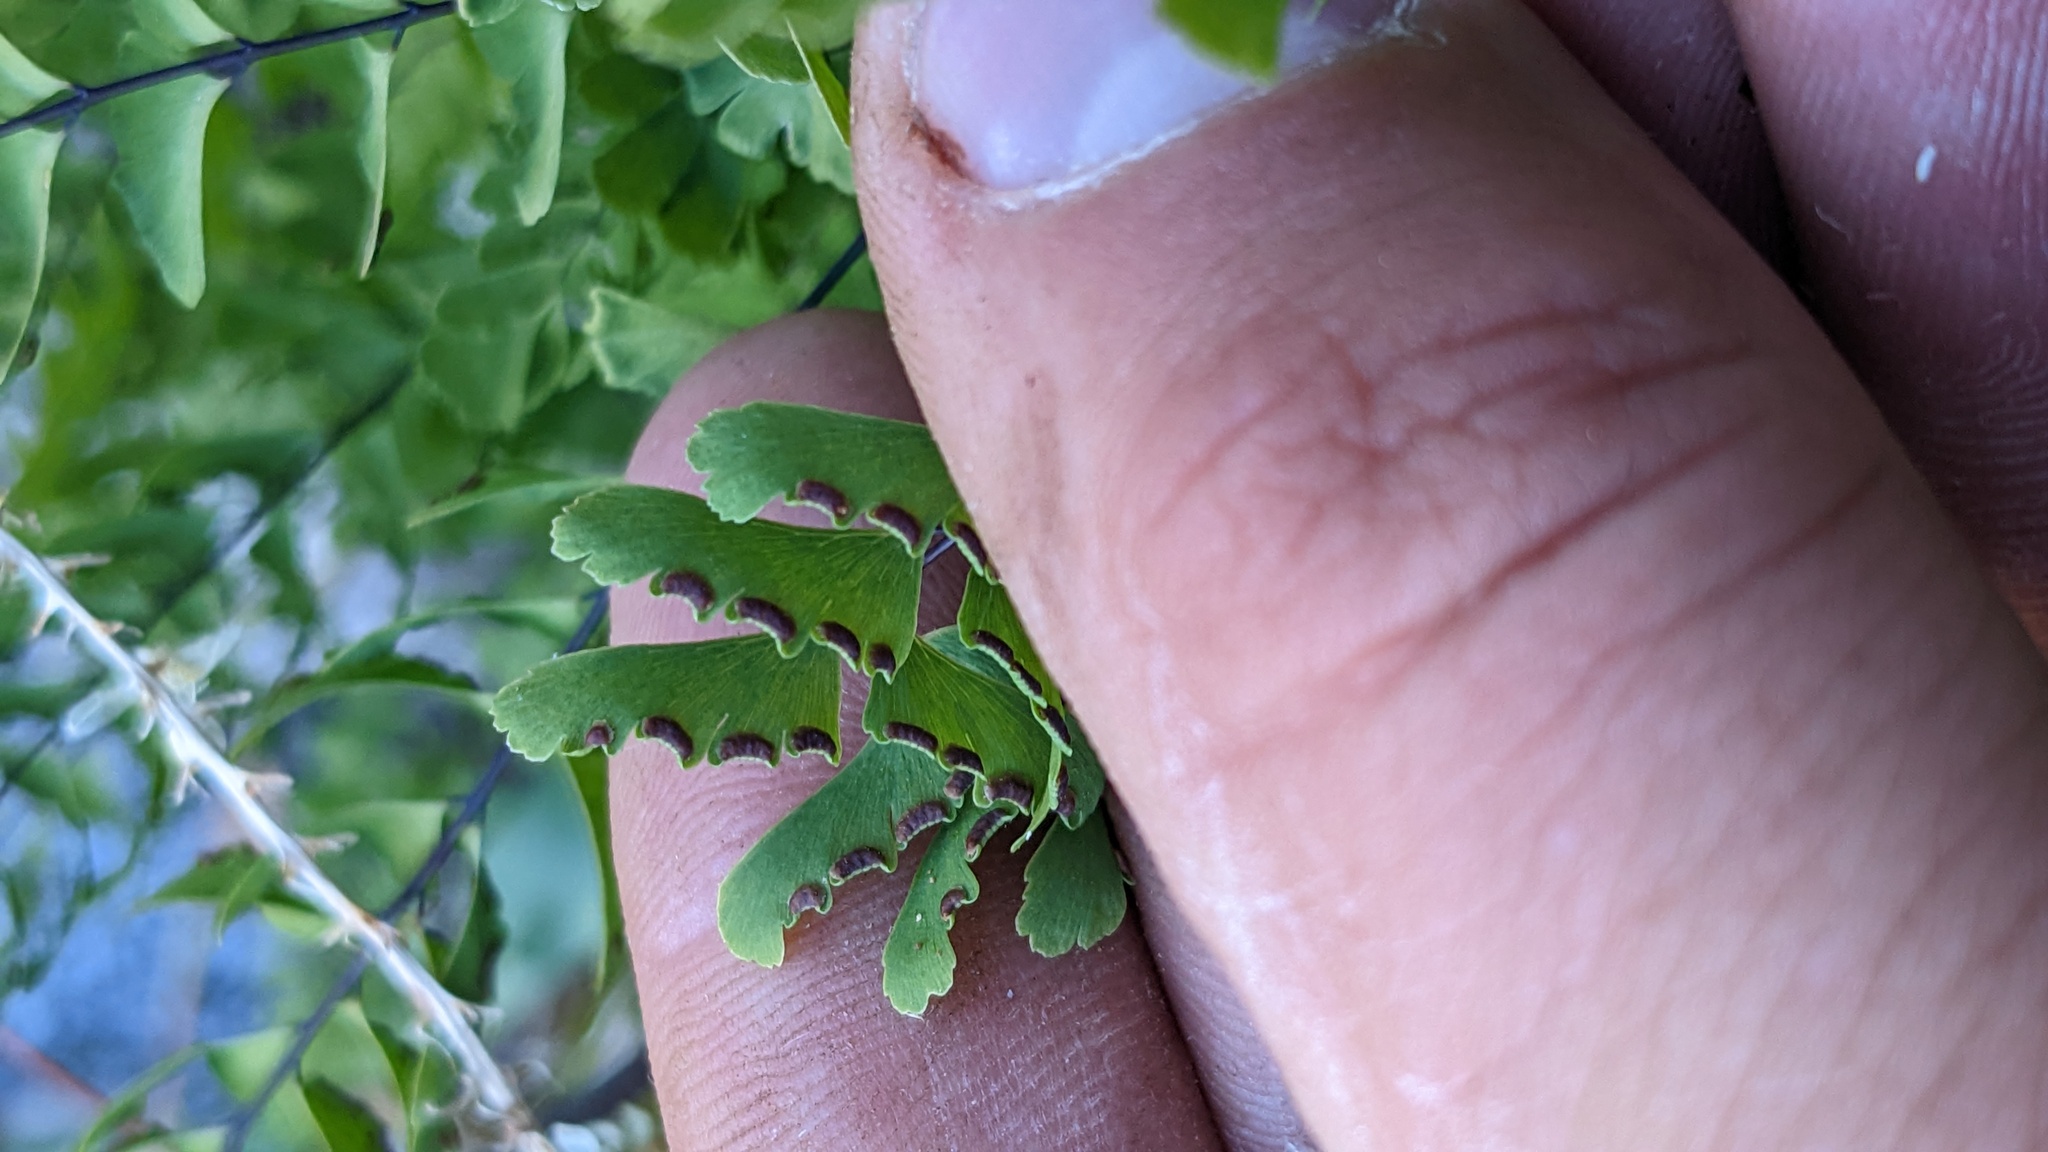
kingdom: Plantae
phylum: Tracheophyta
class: Polypodiopsida
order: Polypodiales
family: Pteridaceae
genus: Adiantum
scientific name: Adiantum aleuticum
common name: Aleutian maidenhair fern
